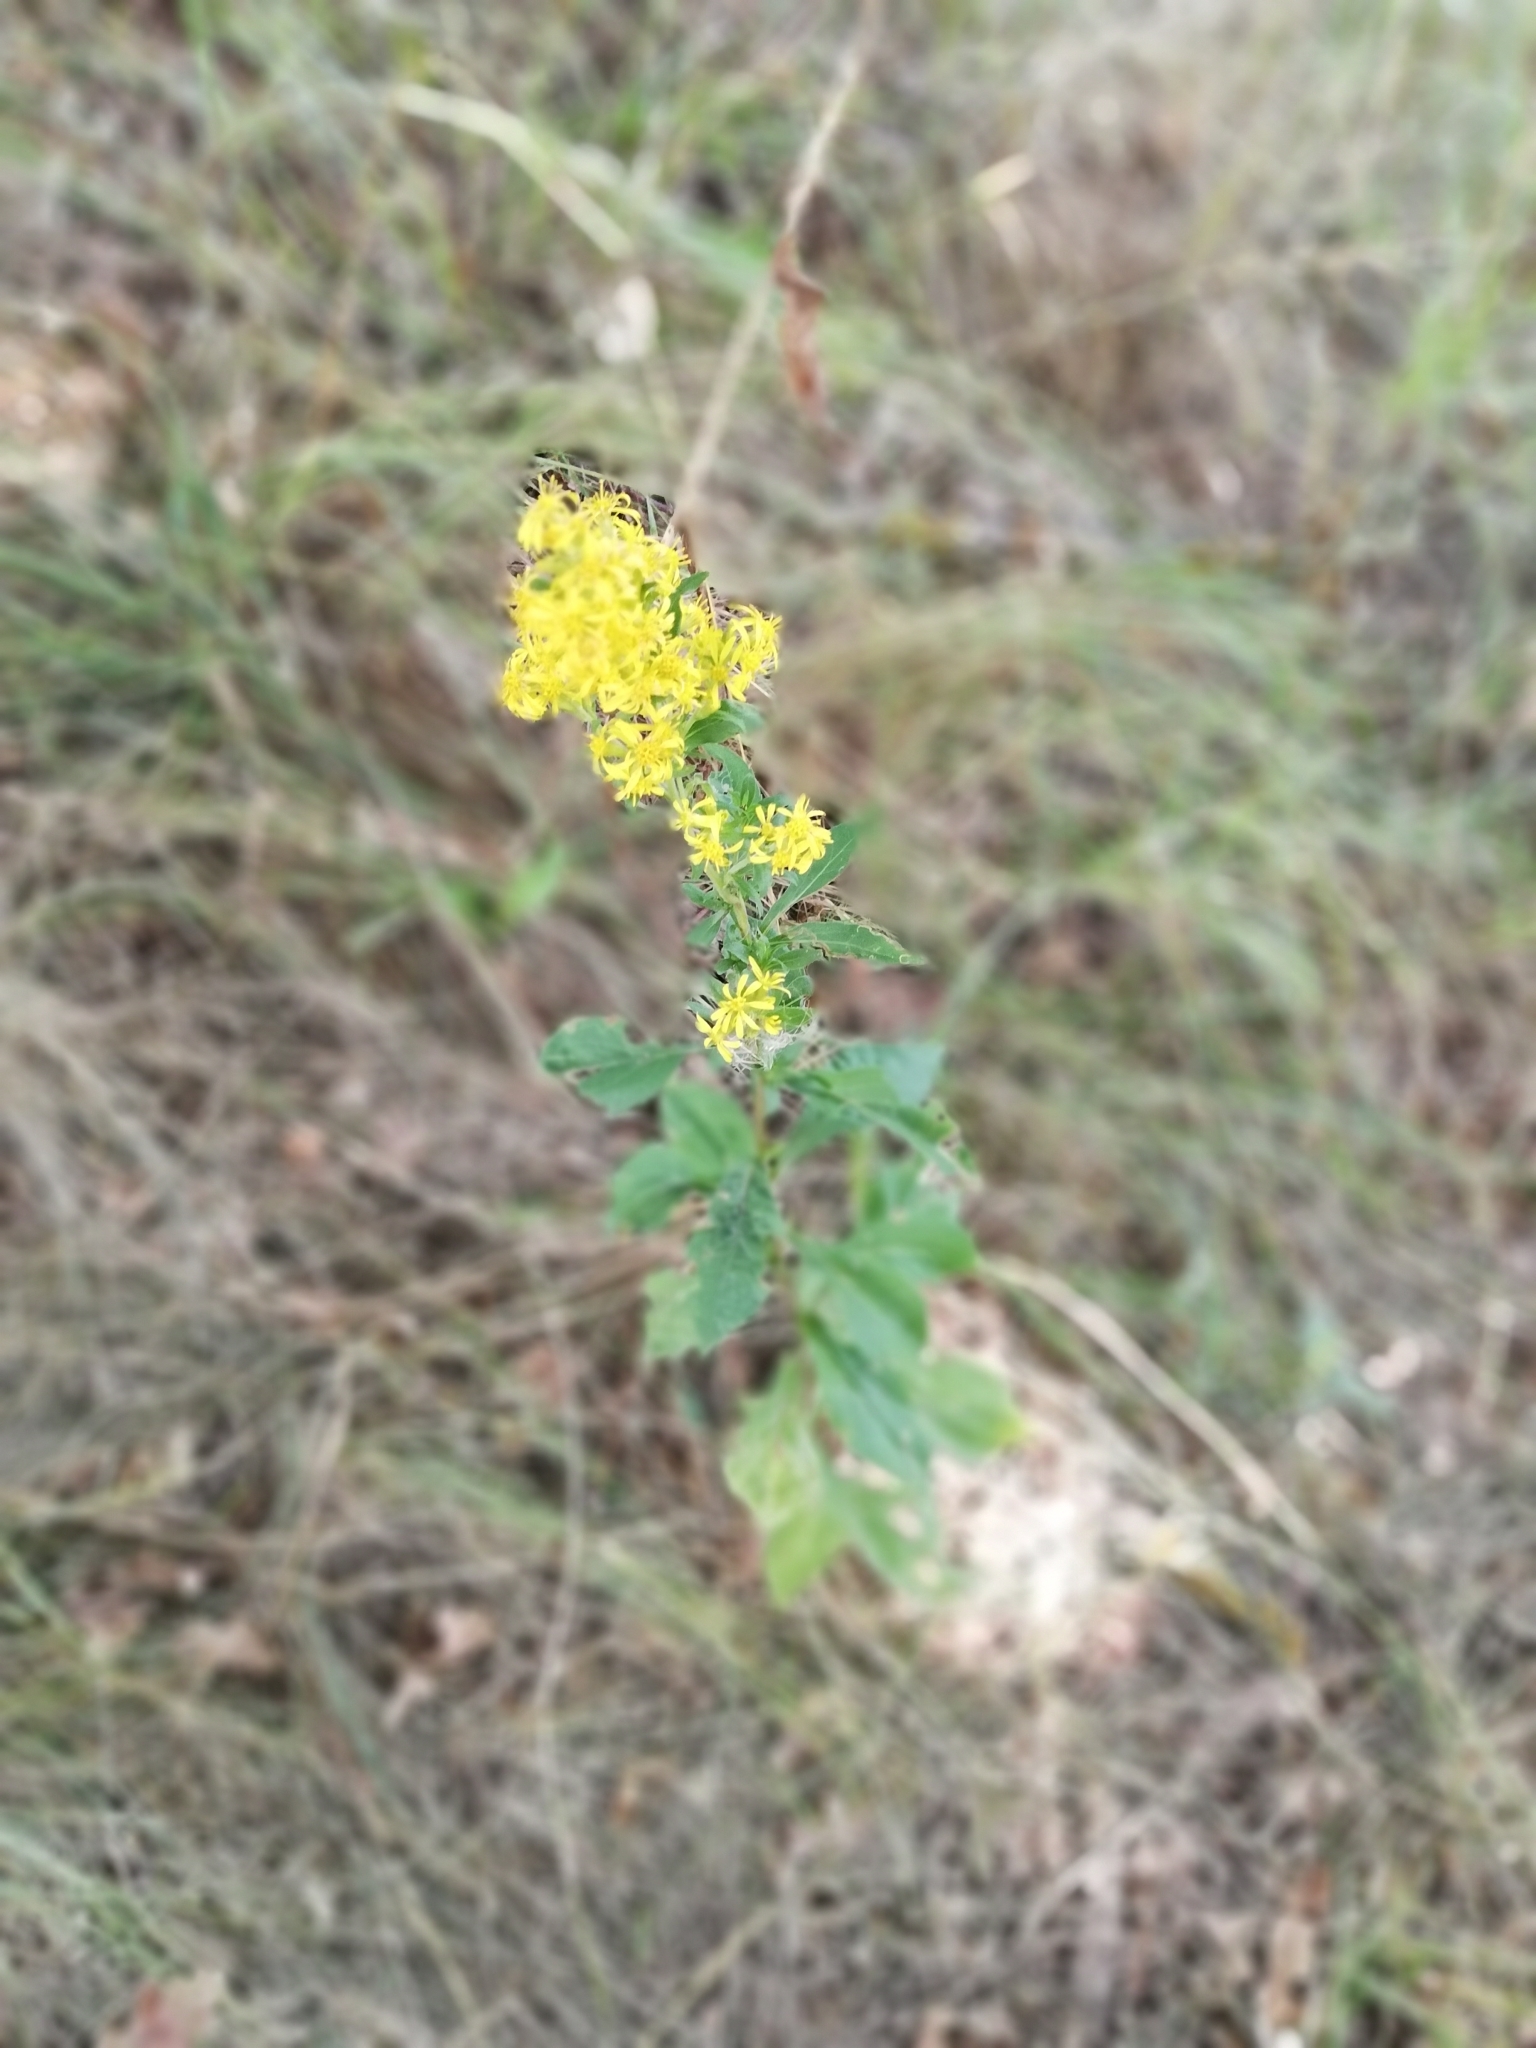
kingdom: Plantae
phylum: Tracheophyta
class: Magnoliopsida
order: Asterales
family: Asteraceae
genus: Solidago
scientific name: Solidago virgaurea
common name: Goldenrod
